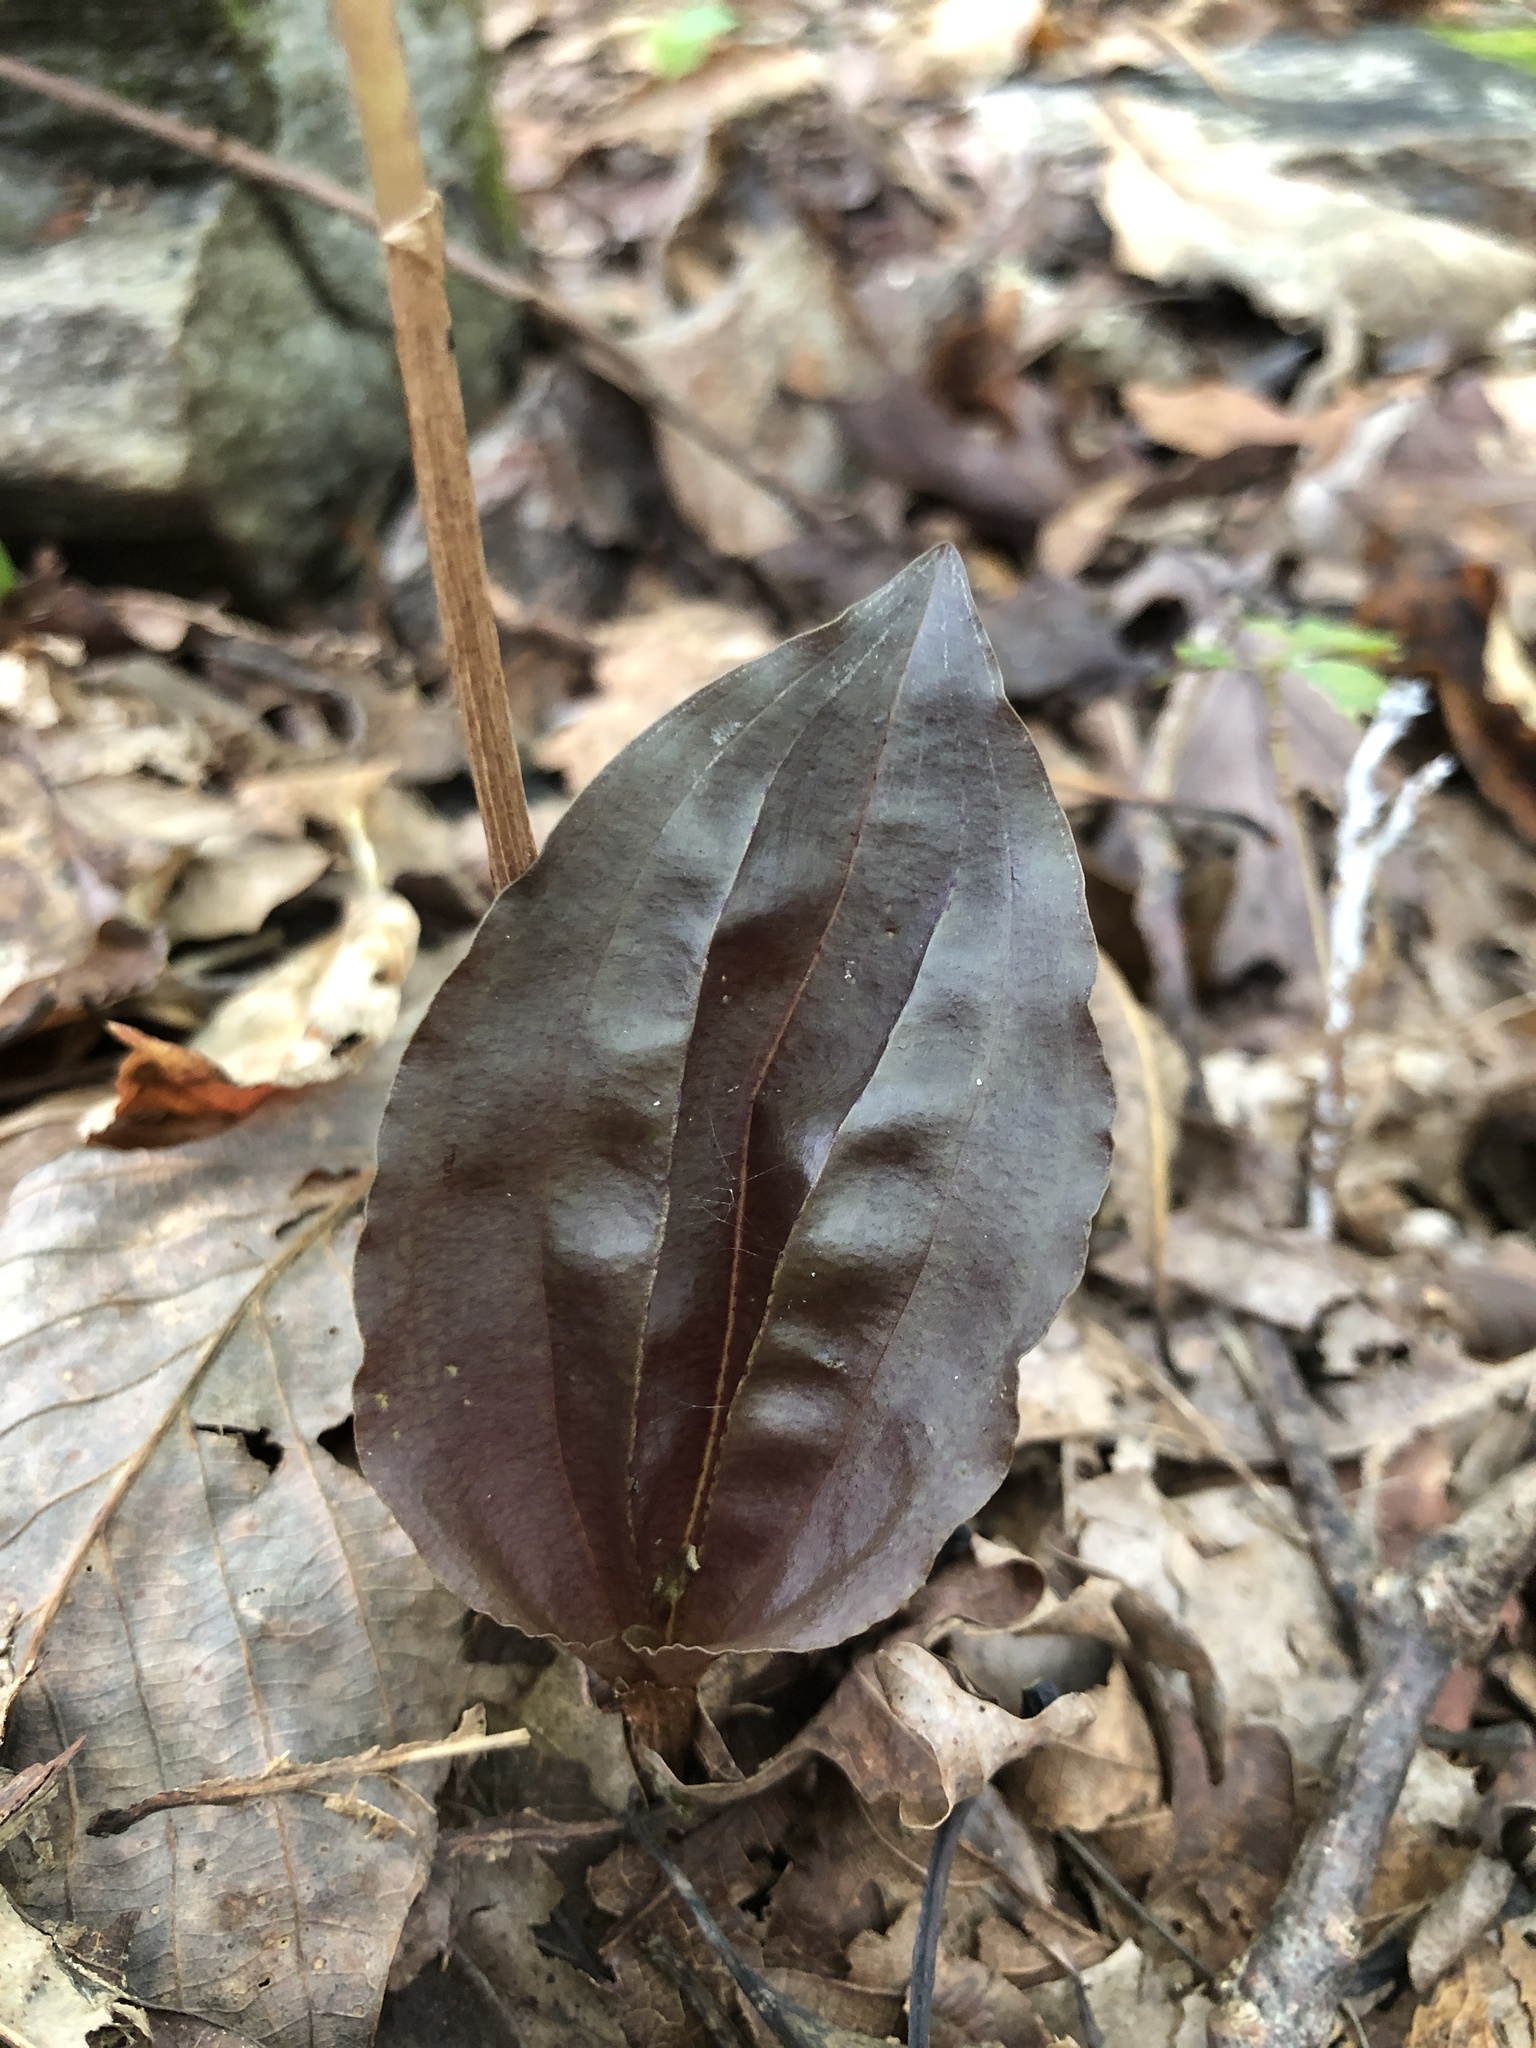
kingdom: Plantae
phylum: Tracheophyta
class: Liliopsida
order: Asparagales
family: Orchidaceae
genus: Tipularia
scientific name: Tipularia discolor
